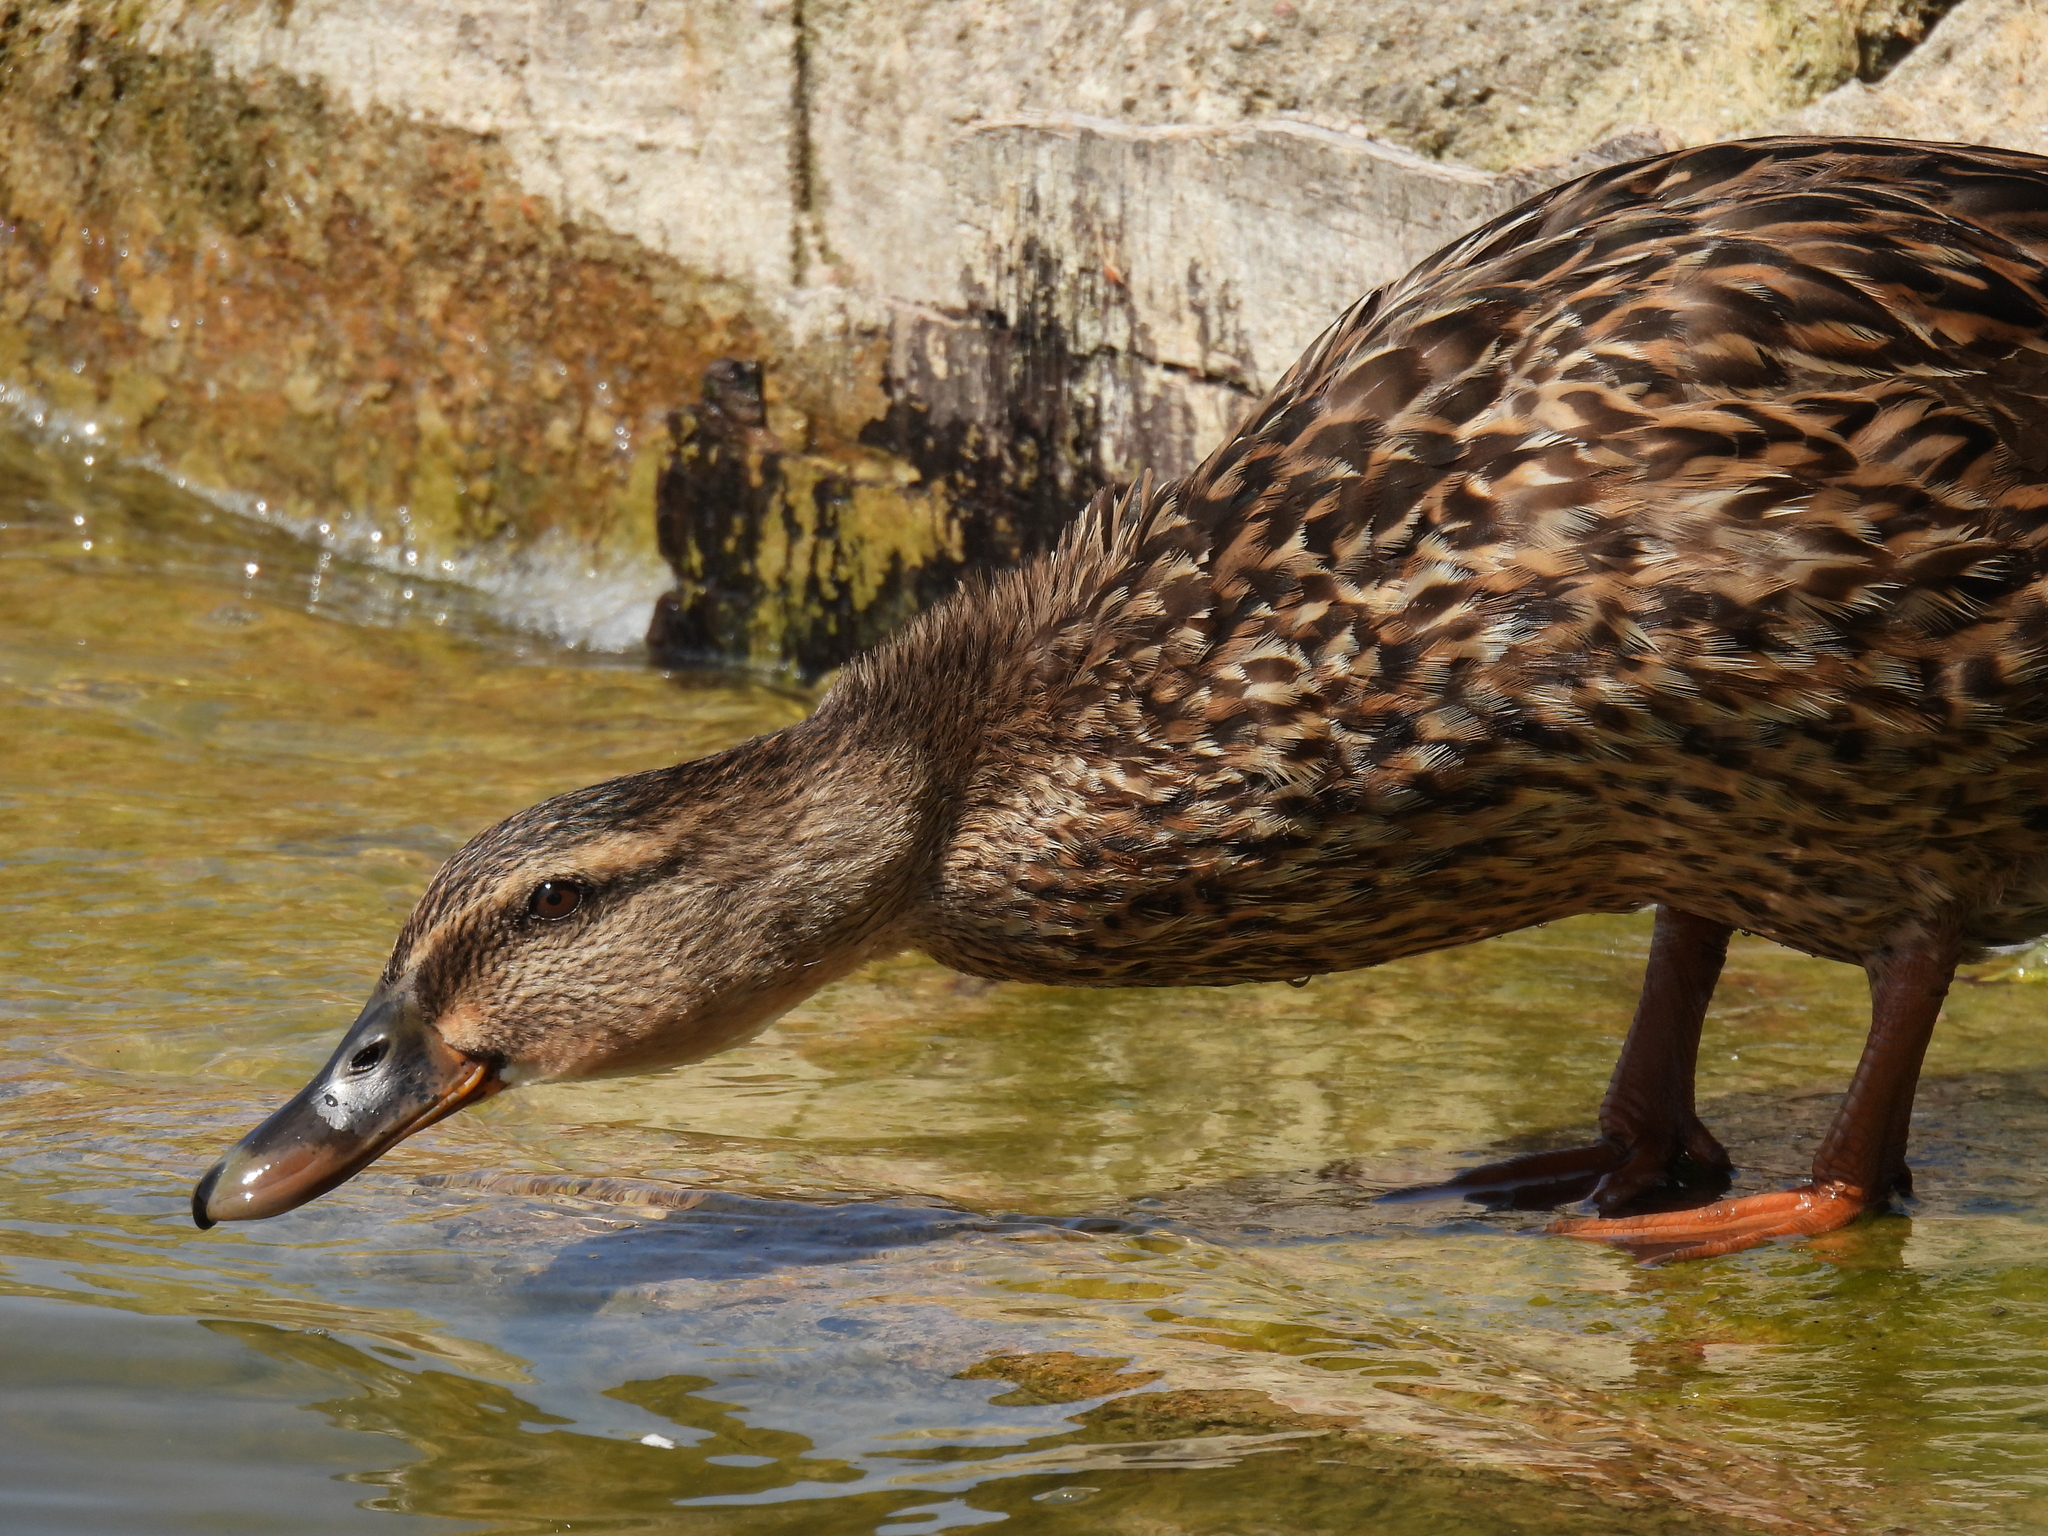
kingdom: Animalia
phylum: Chordata
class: Aves
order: Anseriformes
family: Anatidae
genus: Anas
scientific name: Anas platyrhynchos
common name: Mallard
